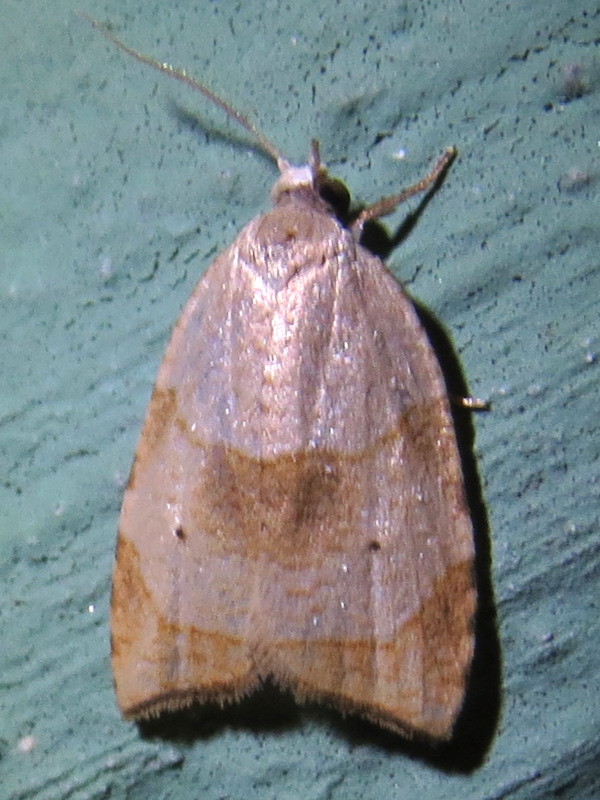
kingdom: Animalia
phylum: Arthropoda
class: Insecta
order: Lepidoptera
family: Tortricidae
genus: Coelostathma
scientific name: Coelostathma discopunctana
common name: Batman moth
